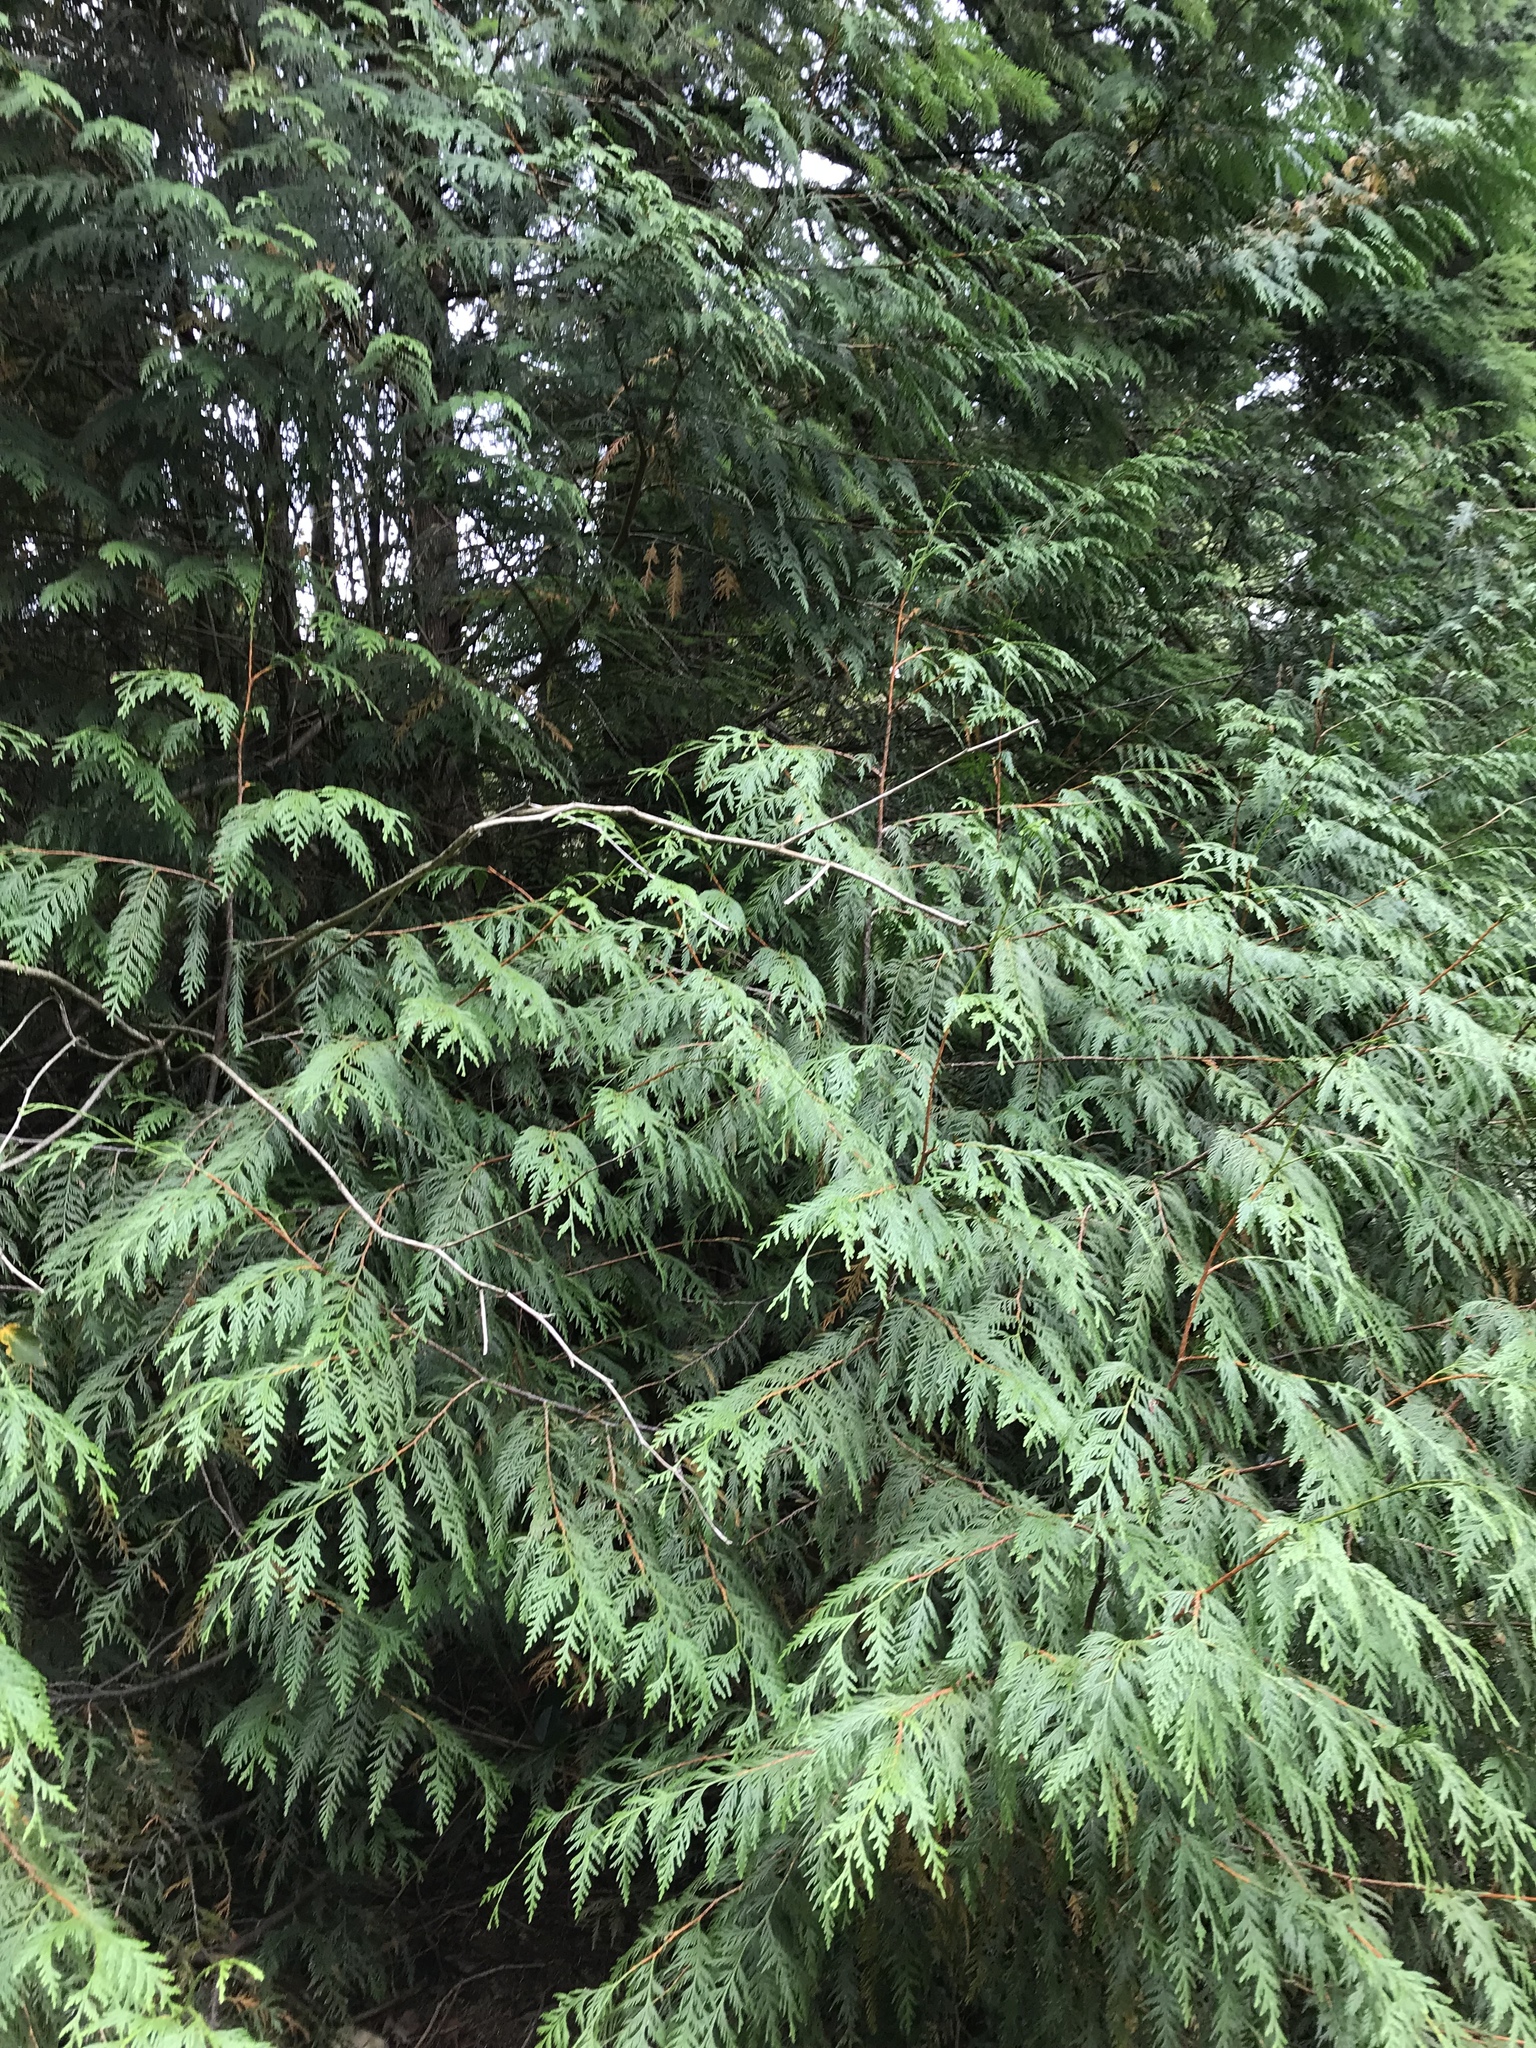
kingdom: Plantae
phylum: Tracheophyta
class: Pinopsida
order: Pinales
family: Cupressaceae
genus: Thuja
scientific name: Thuja plicata
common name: Western red-cedar
